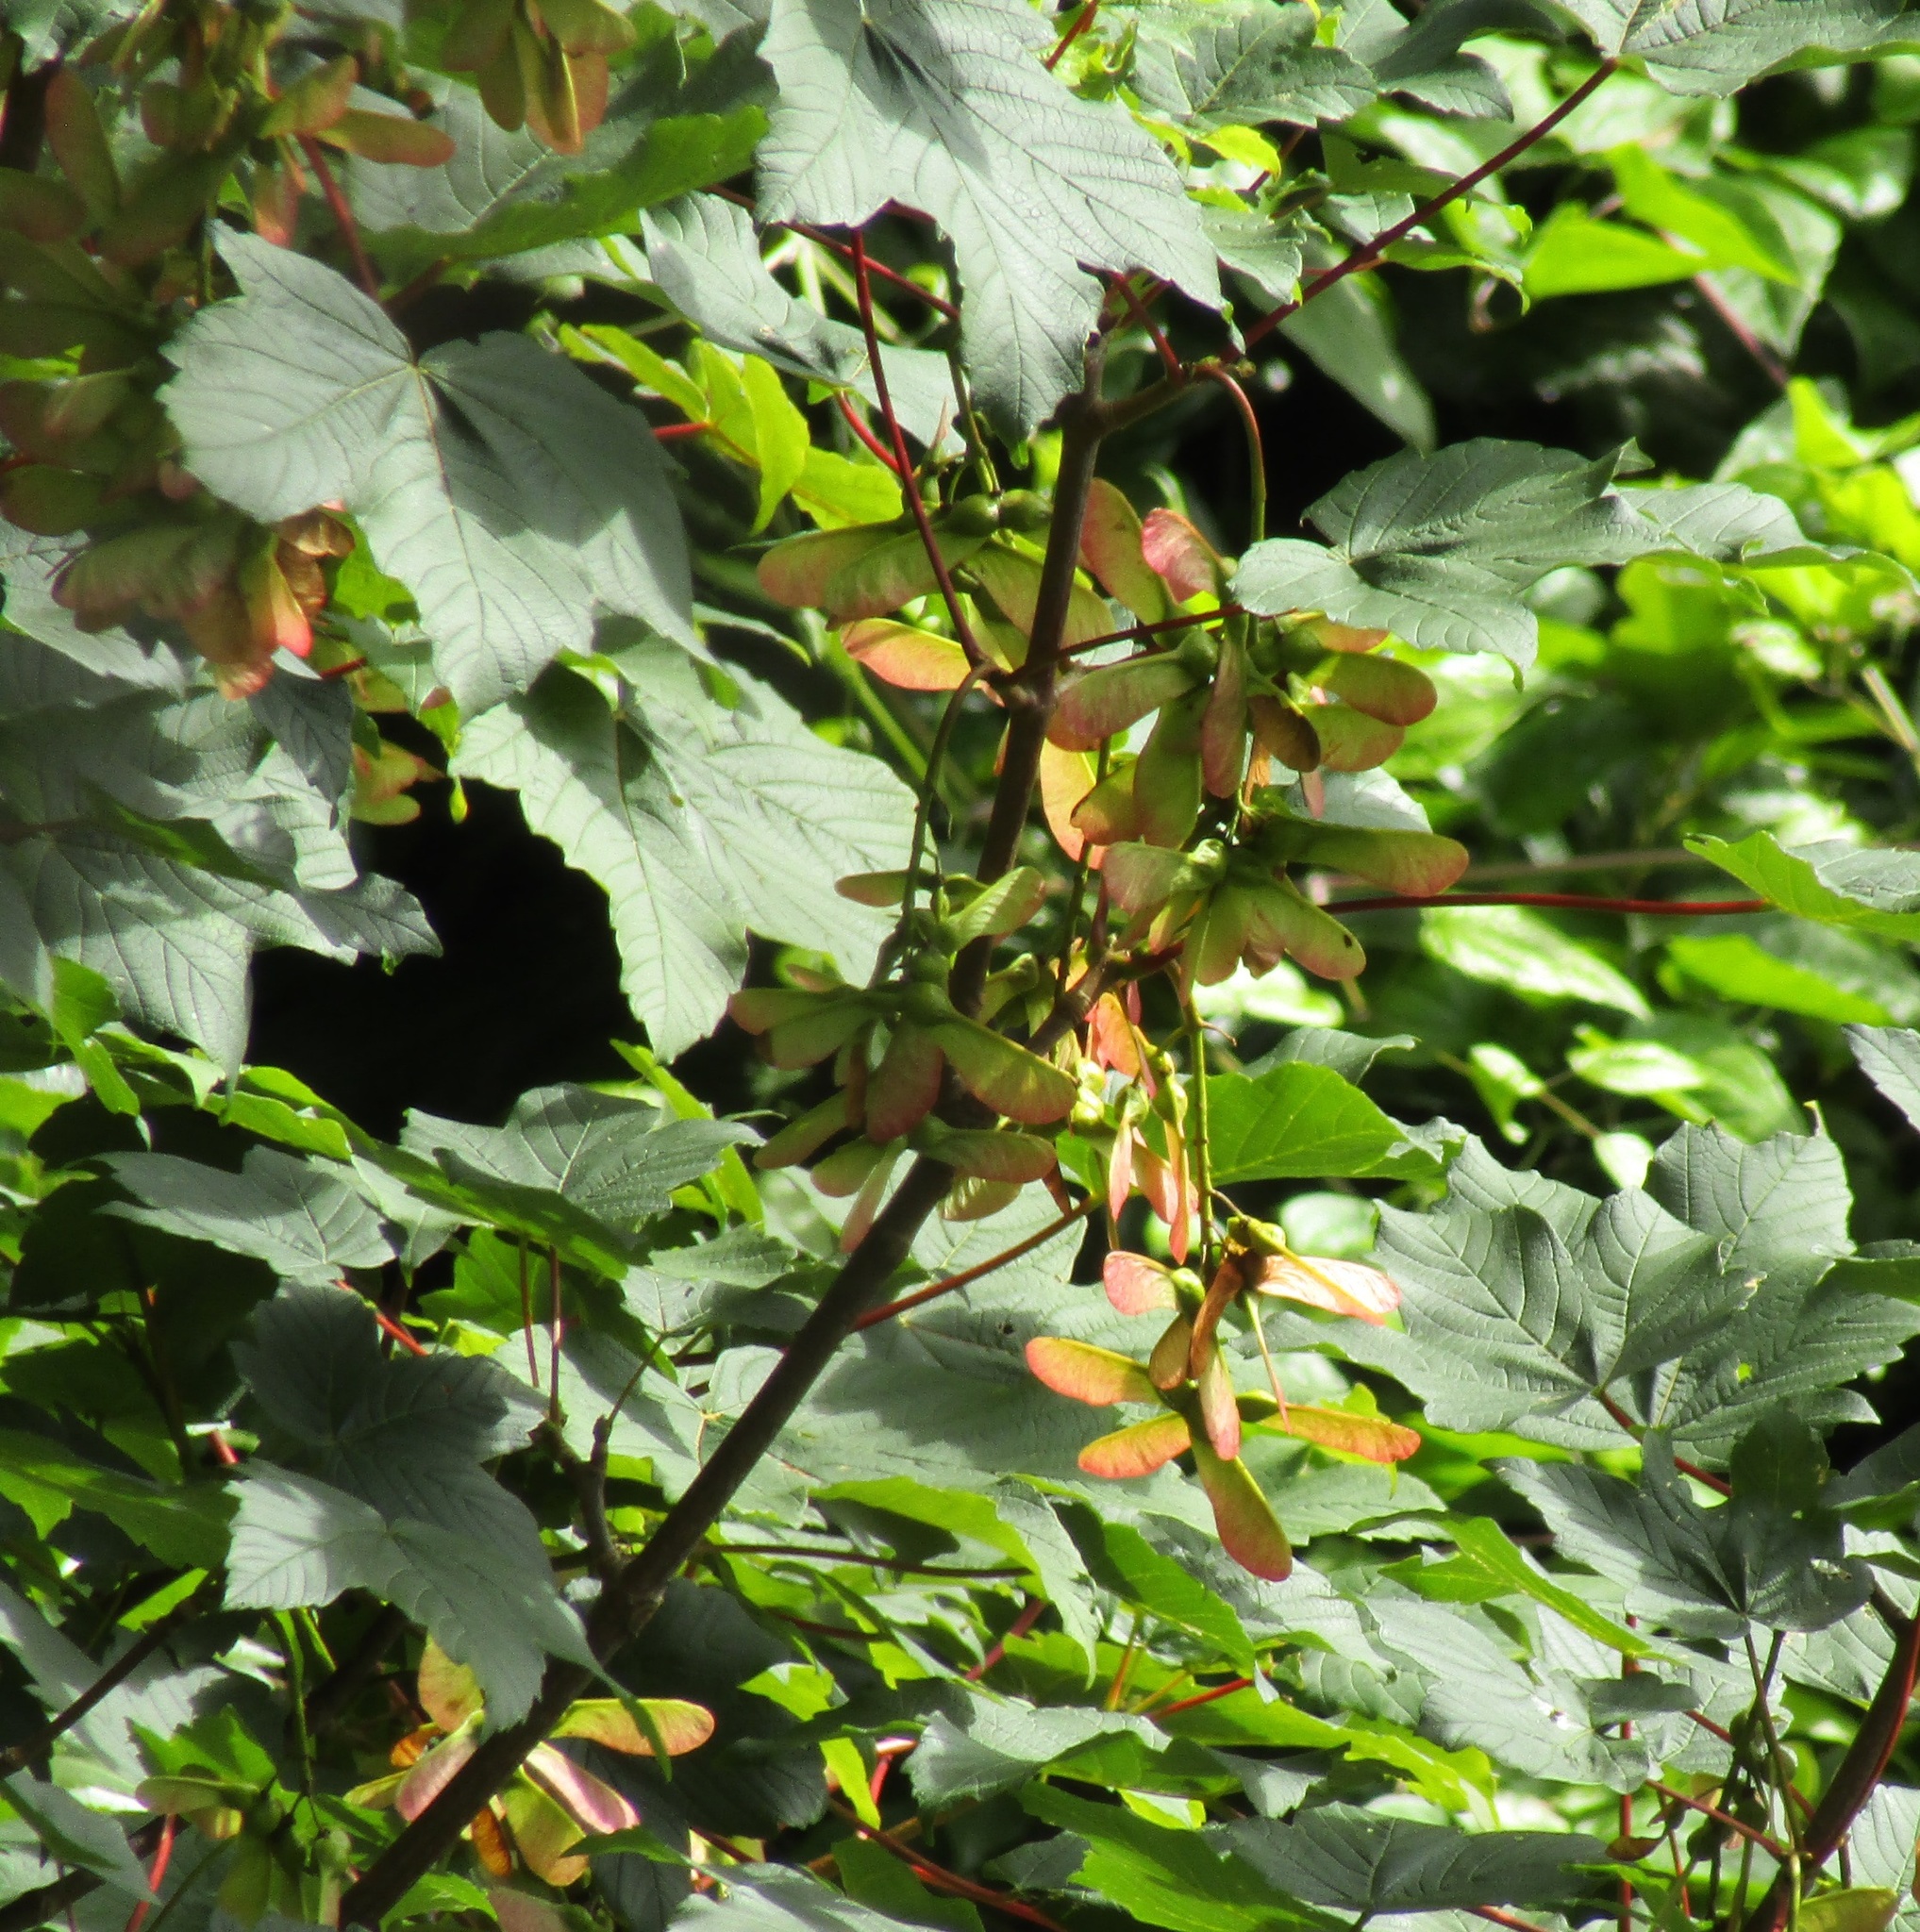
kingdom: Plantae
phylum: Tracheophyta
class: Magnoliopsida
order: Sapindales
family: Sapindaceae
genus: Acer
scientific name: Acer pseudoplatanus
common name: Sycamore
